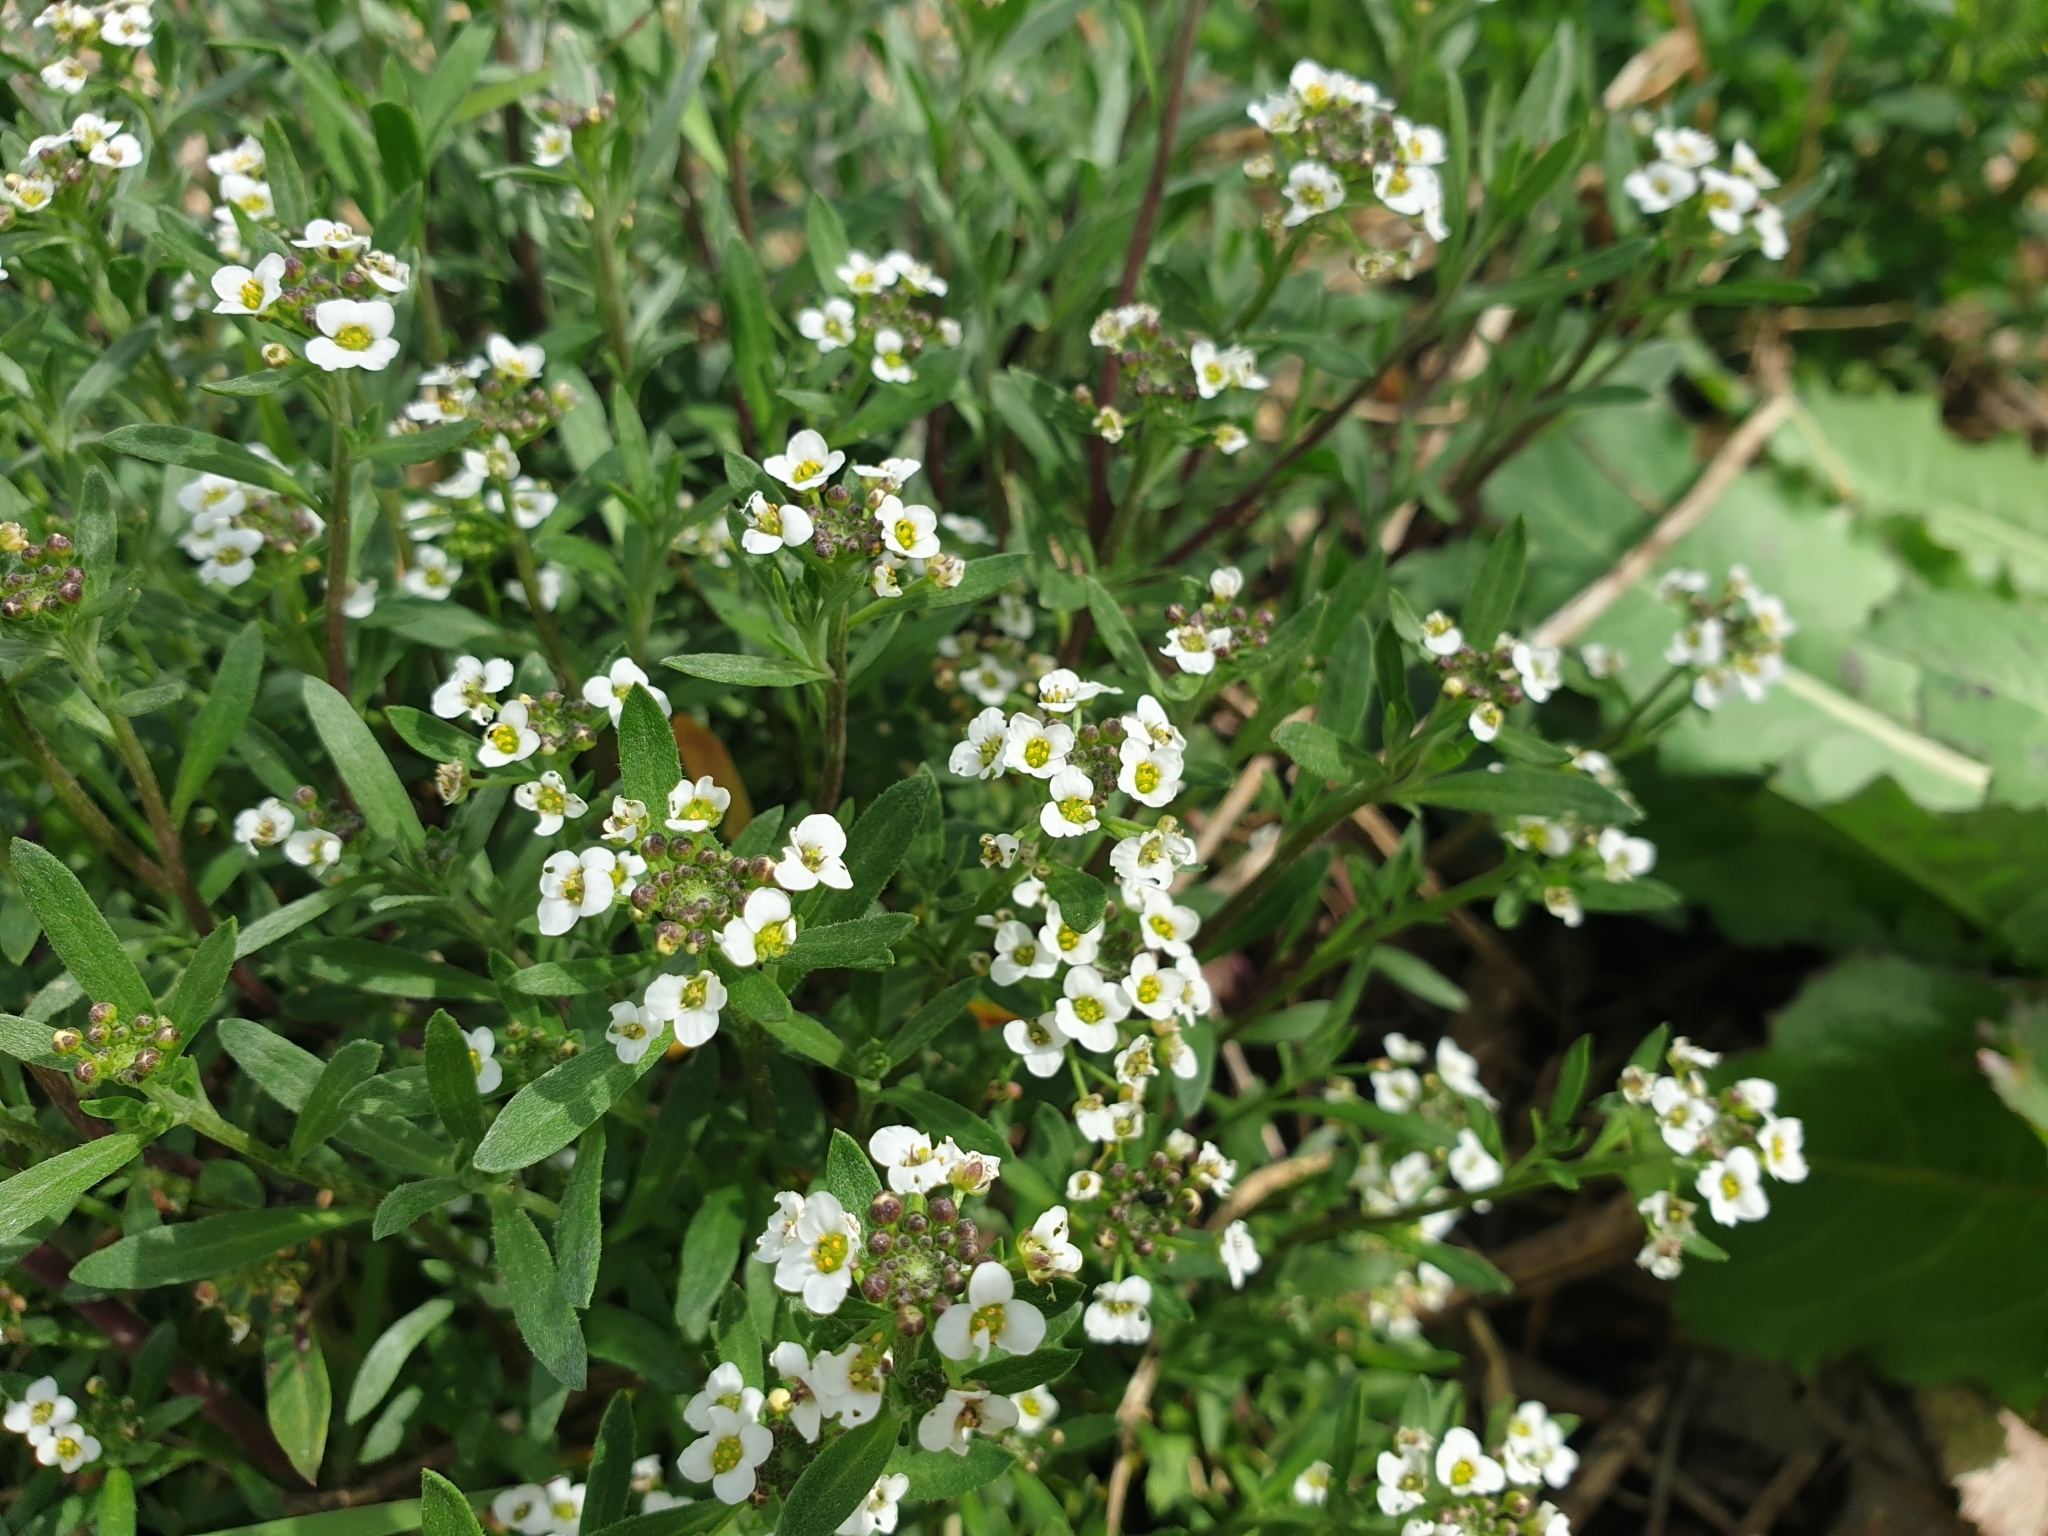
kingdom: Plantae
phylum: Tracheophyta
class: Magnoliopsida
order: Brassicales
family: Brassicaceae
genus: Lobularia
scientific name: Lobularia maritima
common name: Sweet alison
